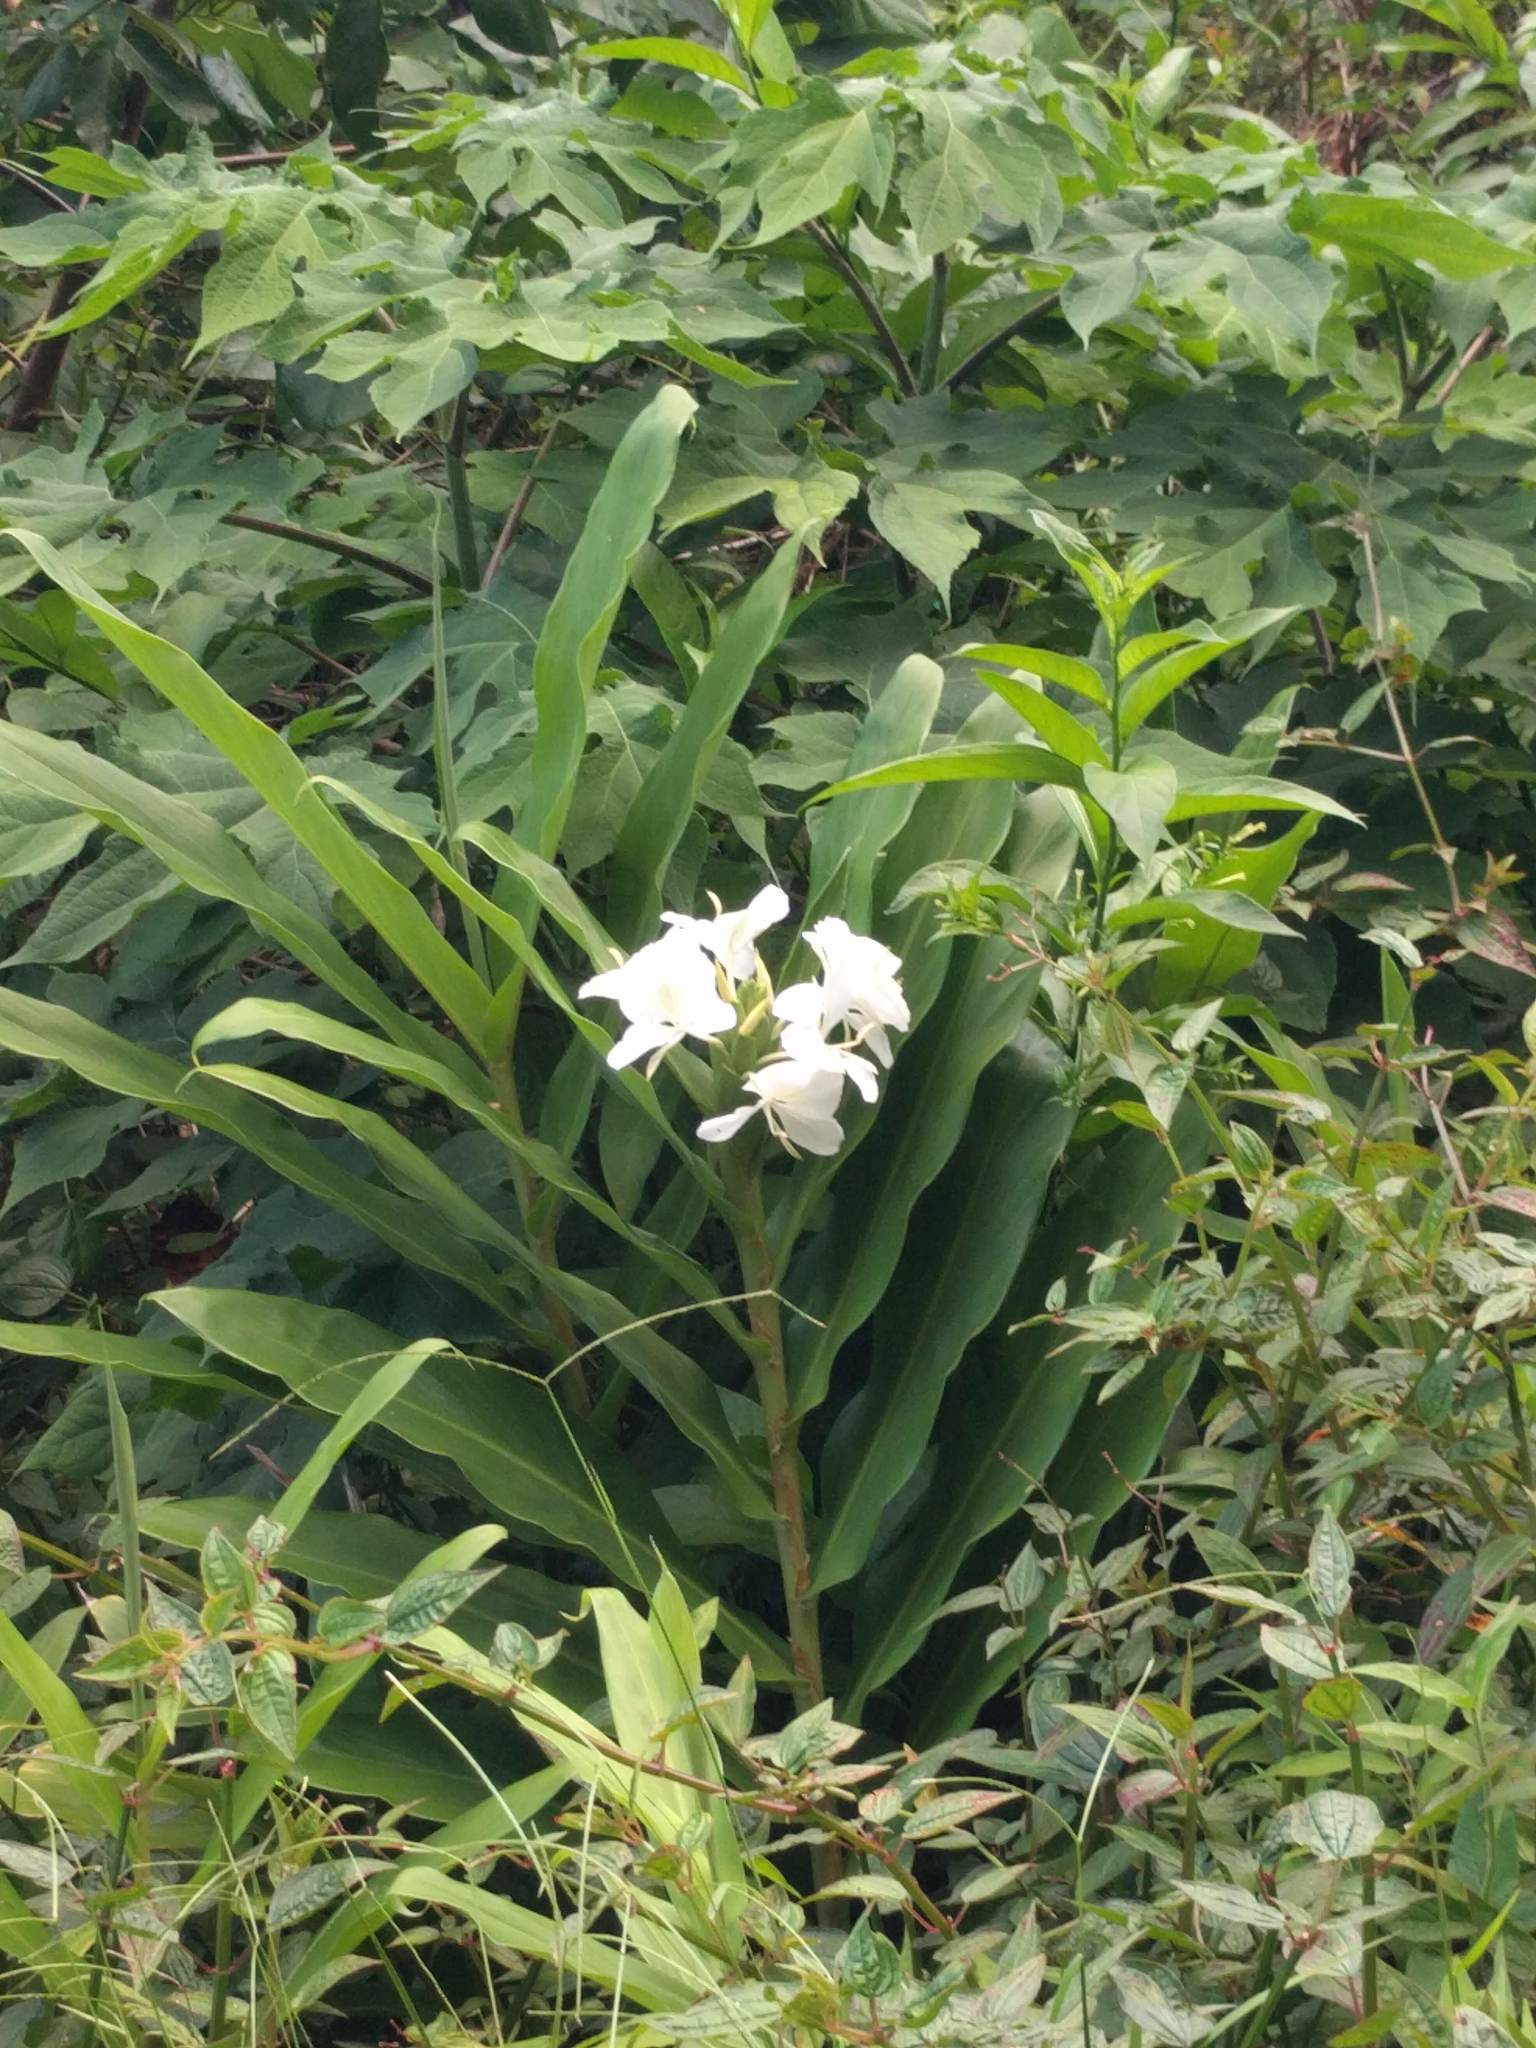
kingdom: Plantae
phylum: Tracheophyta
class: Liliopsida
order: Zingiberales
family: Zingiberaceae
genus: Hedychium
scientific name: Hedychium coronarium
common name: White garland-lily
